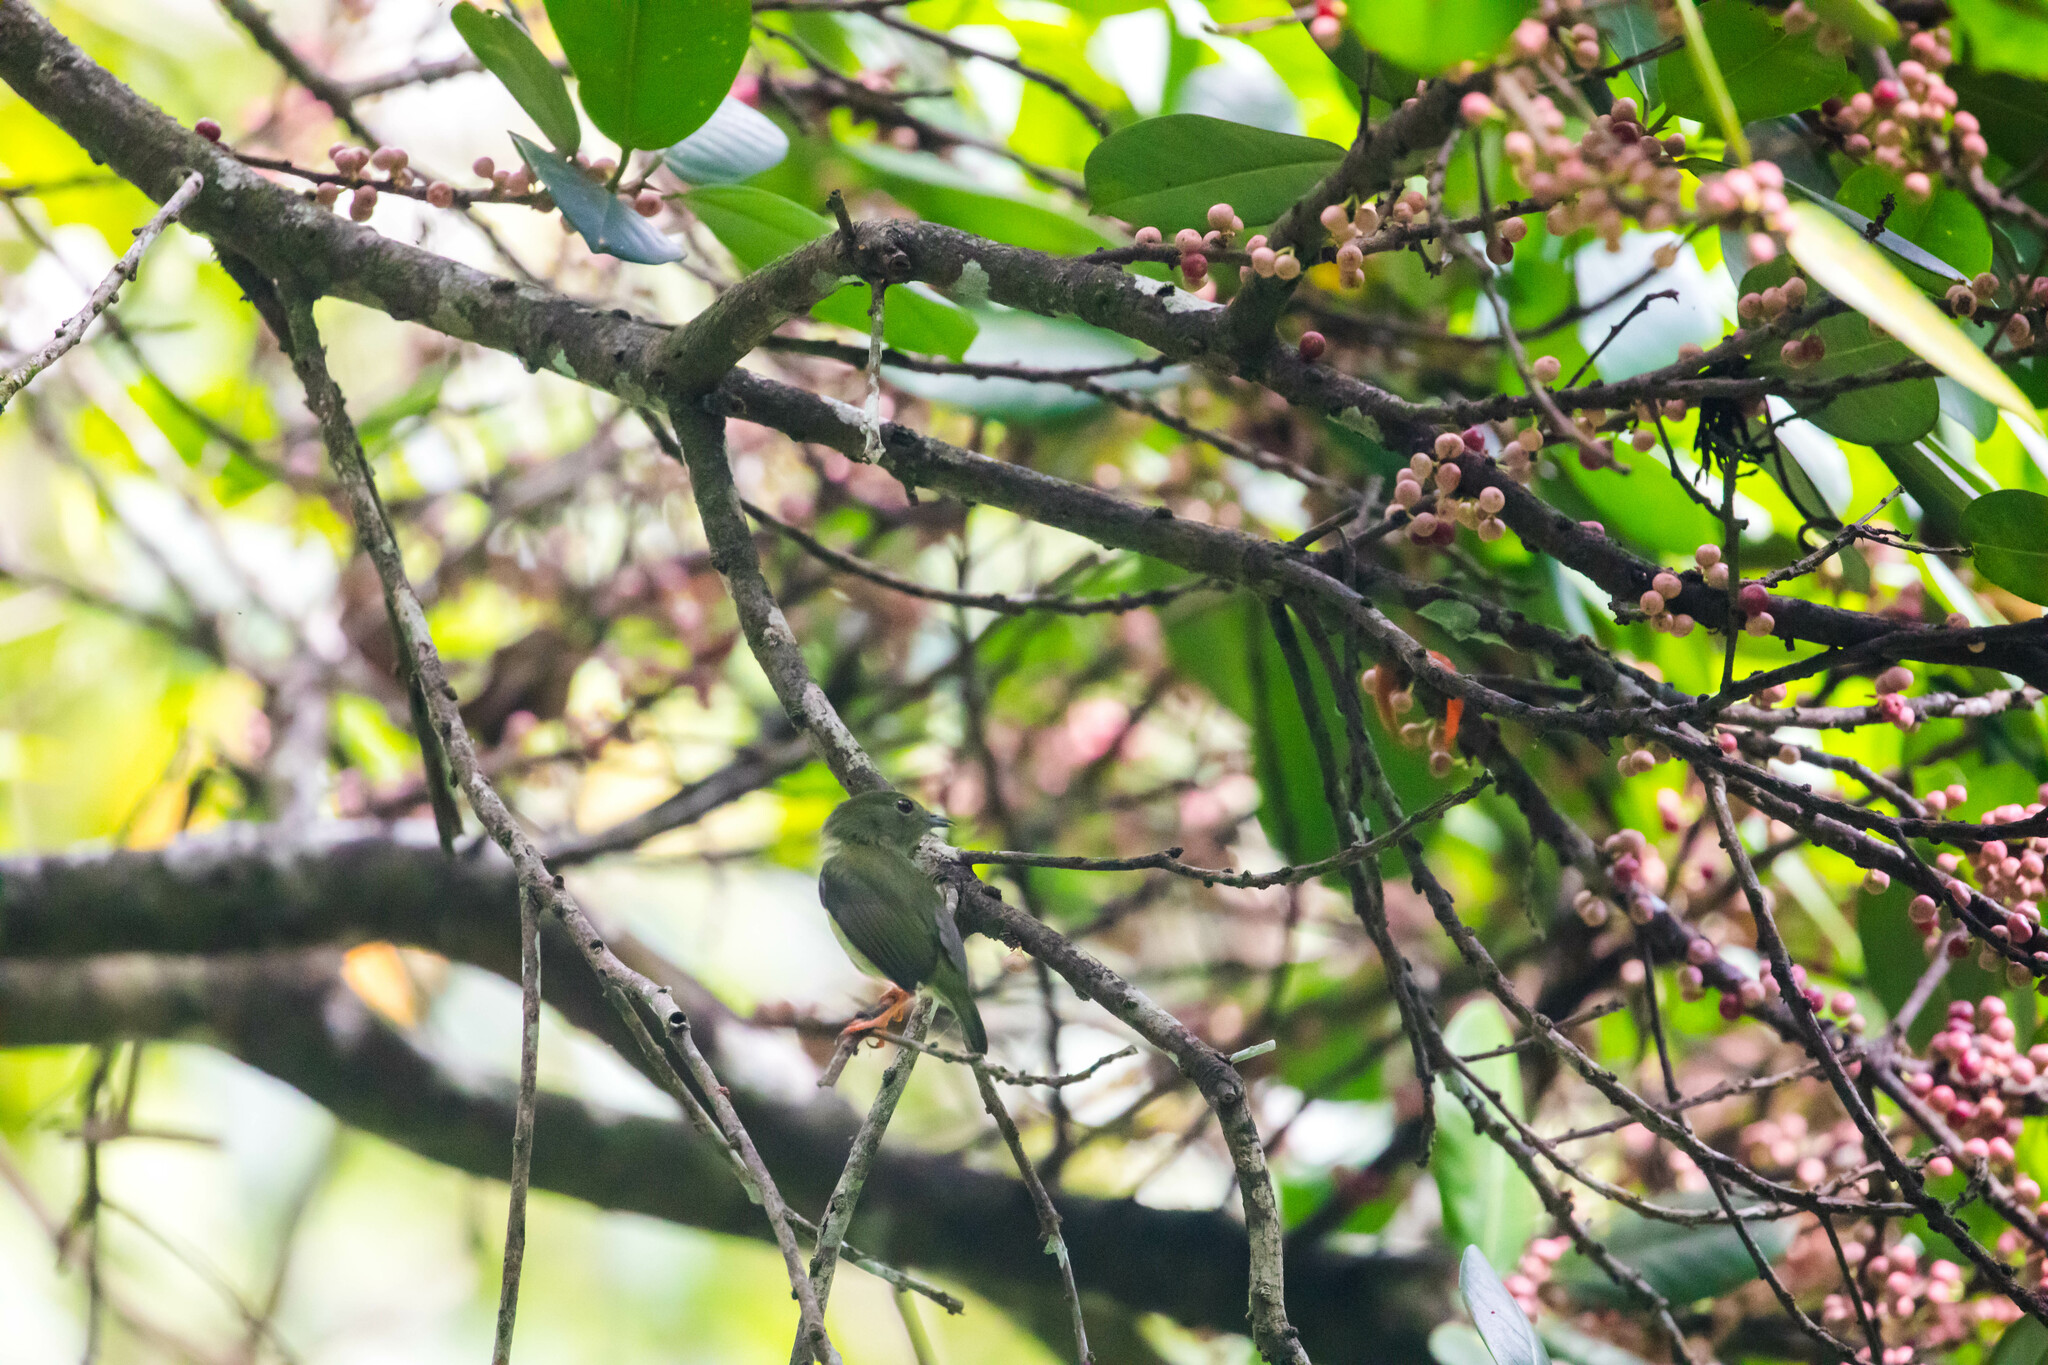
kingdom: Animalia
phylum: Chordata
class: Aves
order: Passeriformes
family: Pipridae
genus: Manacus
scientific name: Manacus manacus
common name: White-bearded manakin
